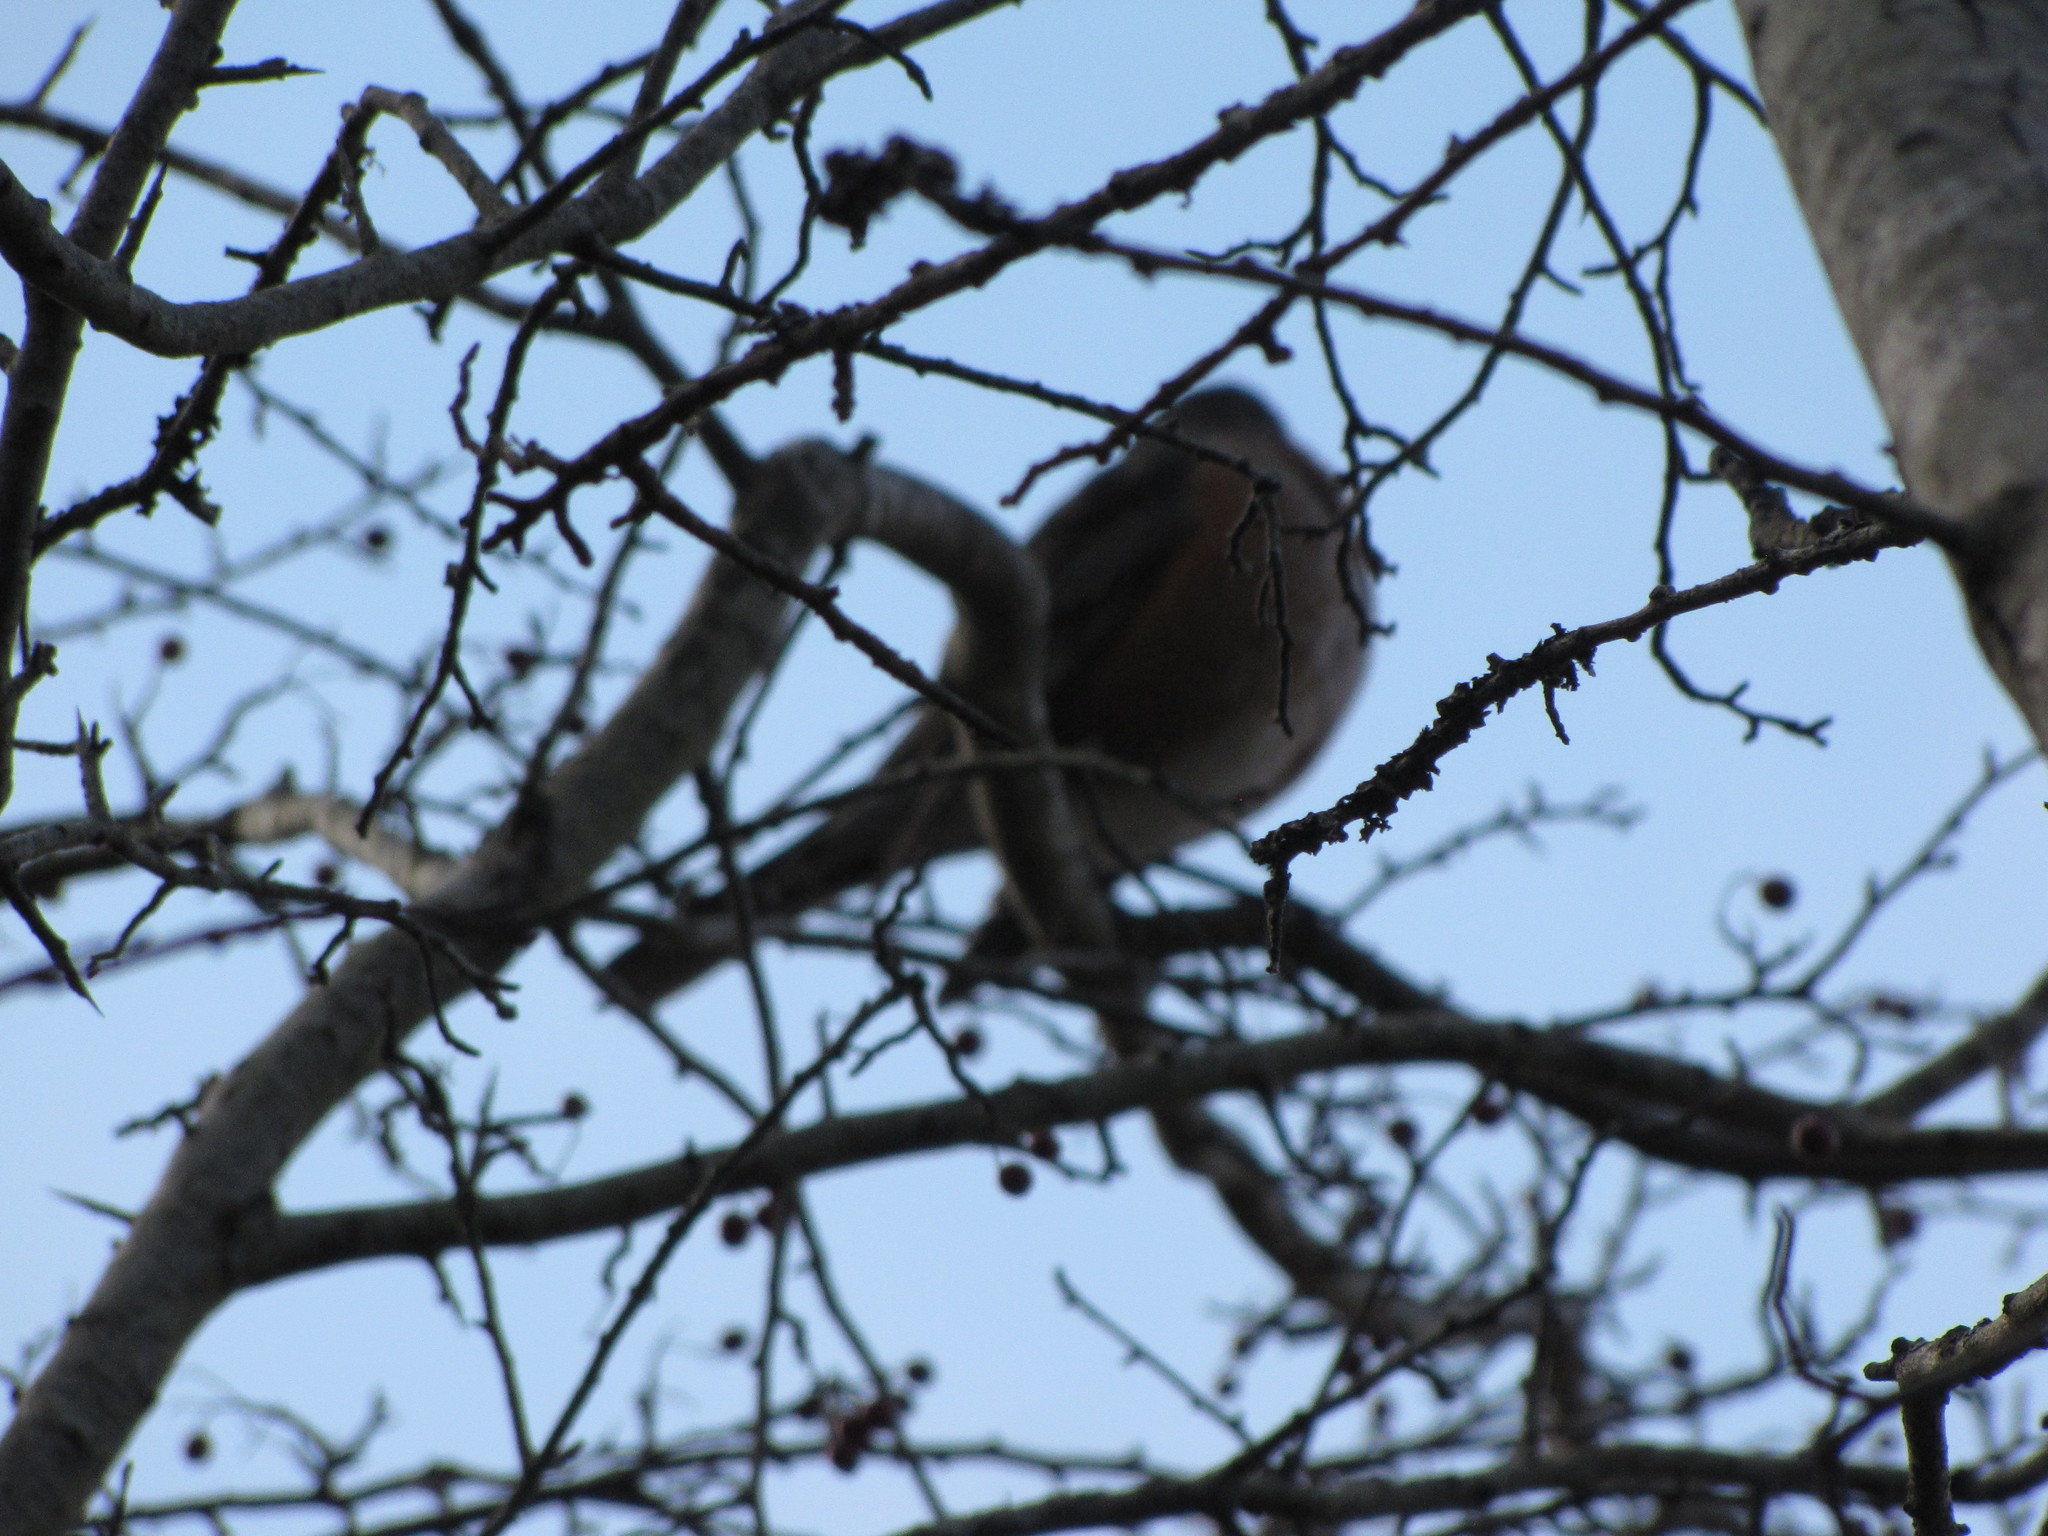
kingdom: Animalia
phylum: Chordata
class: Aves
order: Passeriformes
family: Turdidae
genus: Turdus
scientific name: Turdus migratorius
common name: American robin
